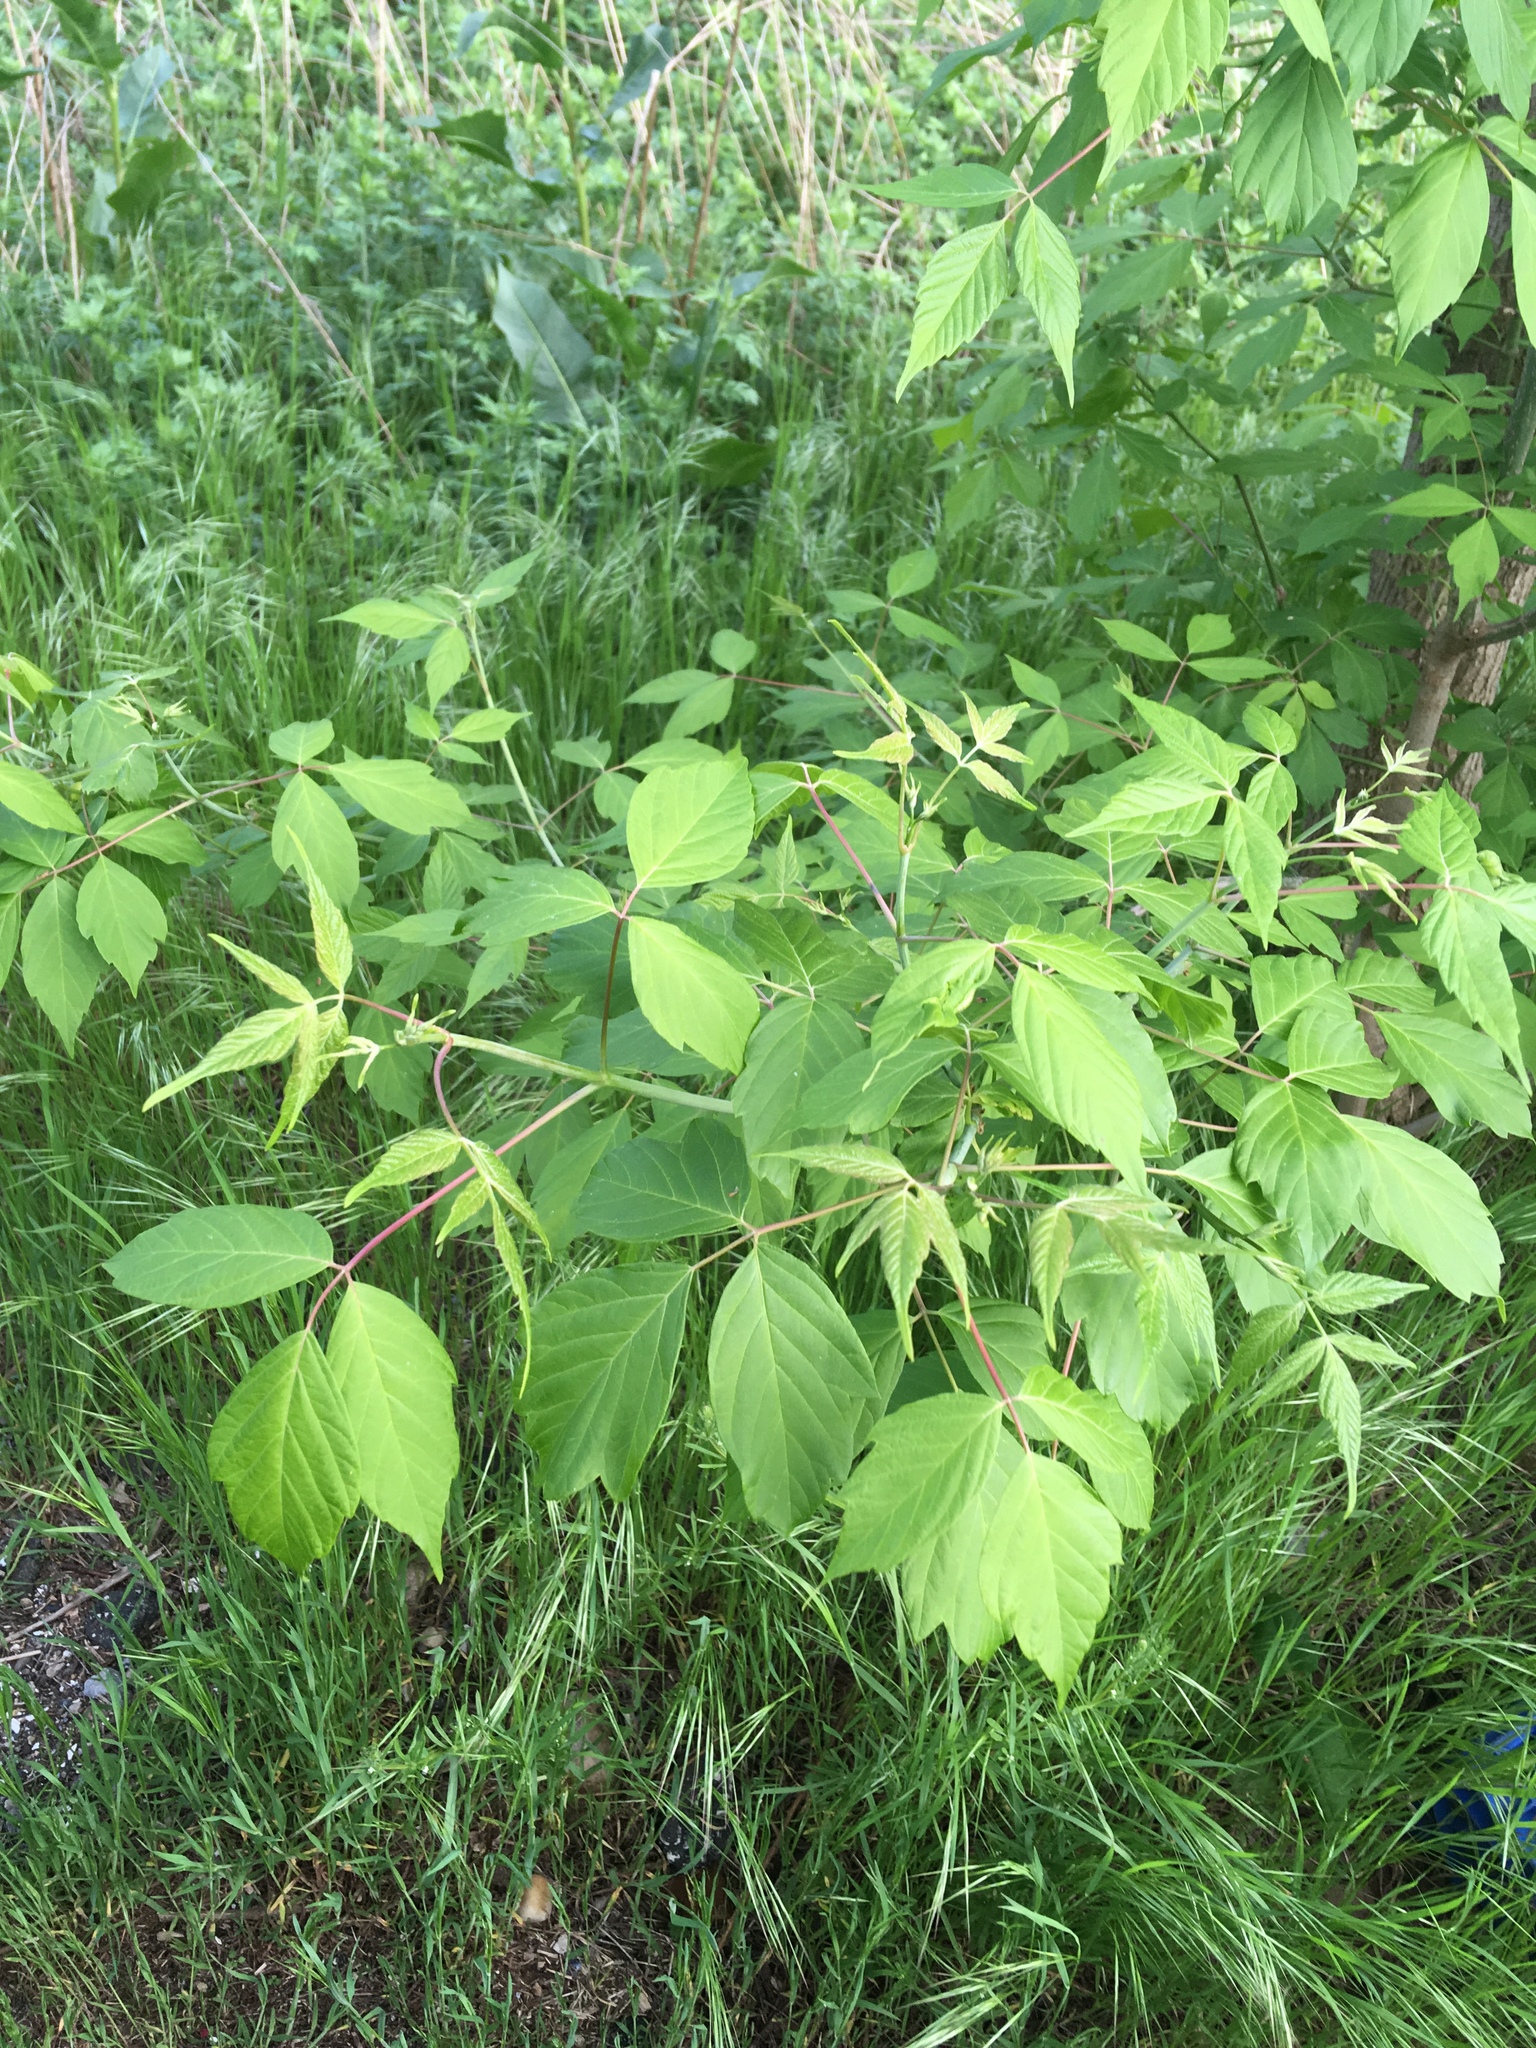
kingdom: Plantae
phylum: Tracheophyta
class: Magnoliopsida
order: Sapindales
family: Sapindaceae
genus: Acer
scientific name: Acer negundo
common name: Ashleaf maple
